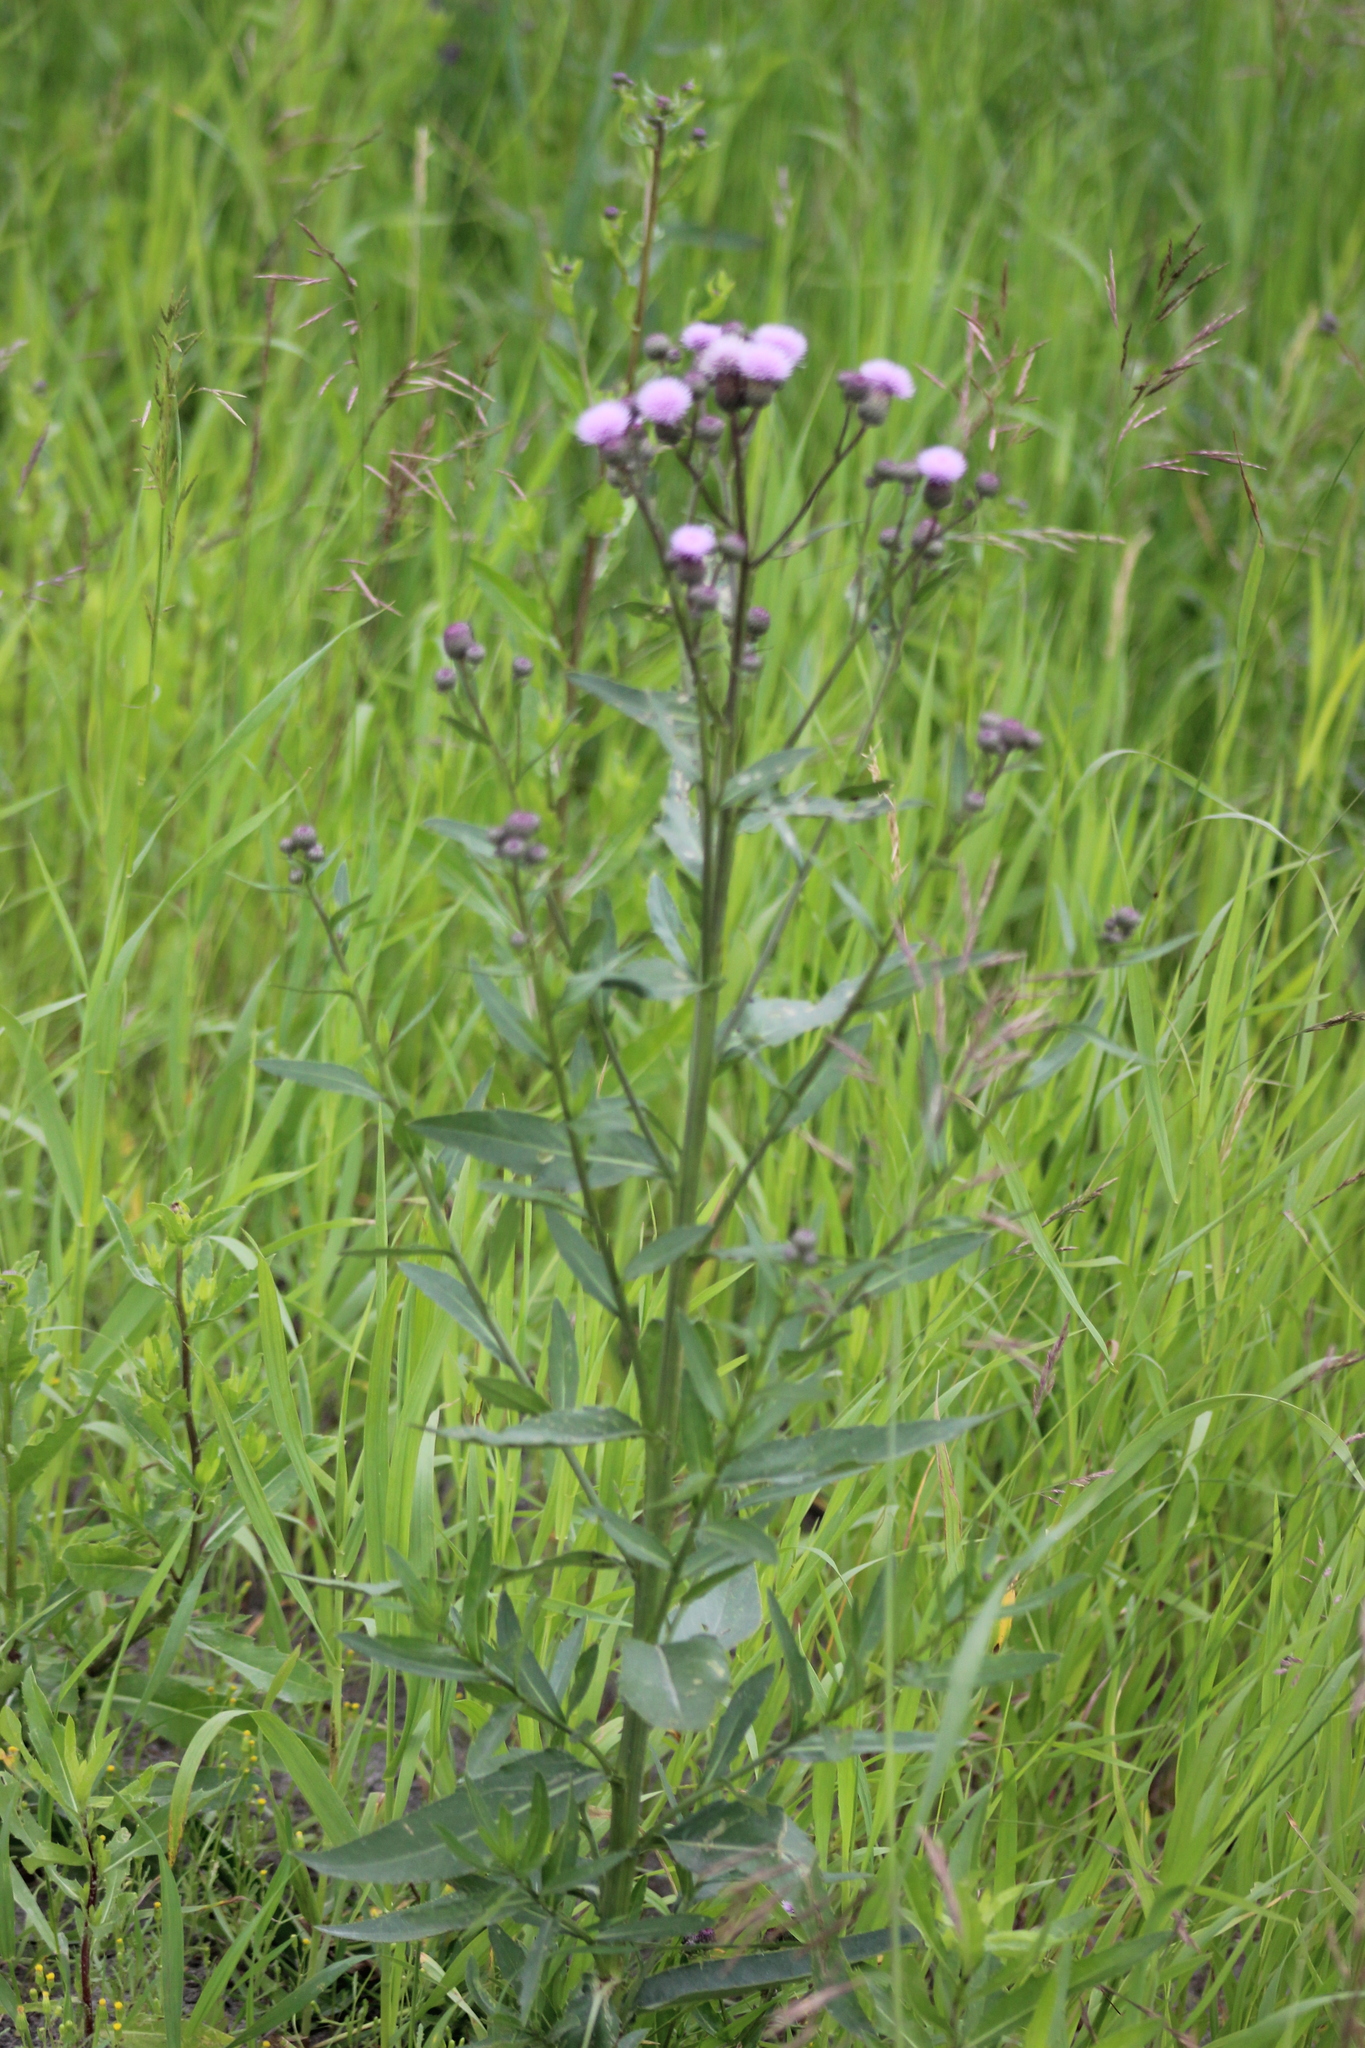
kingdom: Plantae
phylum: Tracheophyta
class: Magnoliopsida
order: Asterales
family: Asteraceae
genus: Cirsium
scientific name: Cirsium arvense
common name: Creeping thistle
